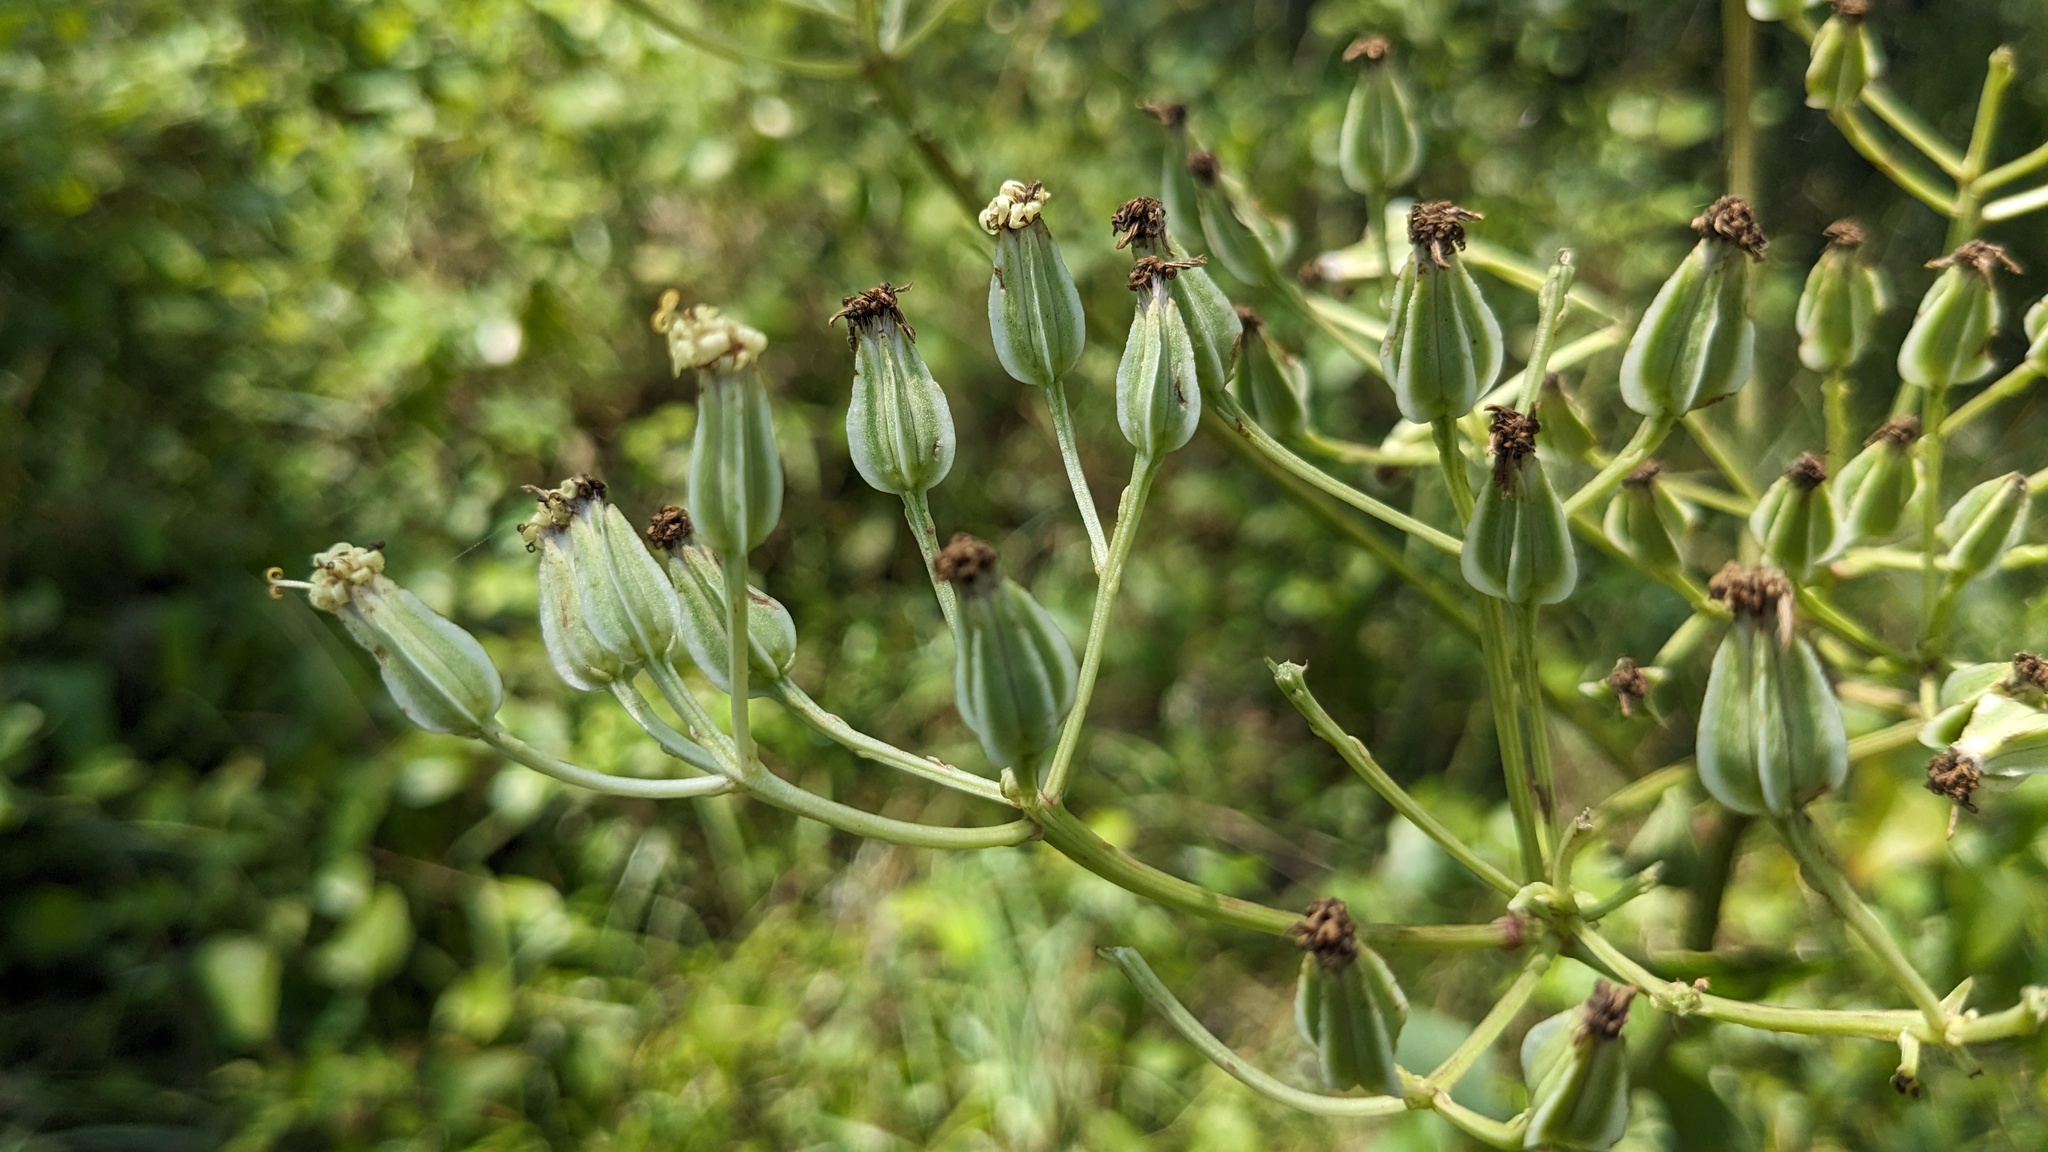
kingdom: Plantae
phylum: Tracheophyta
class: Magnoliopsida
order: Asterales
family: Asteraceae
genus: Arnoglossum
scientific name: Arnoglossum plantagineum
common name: Groove-stemmed indian-plantain
